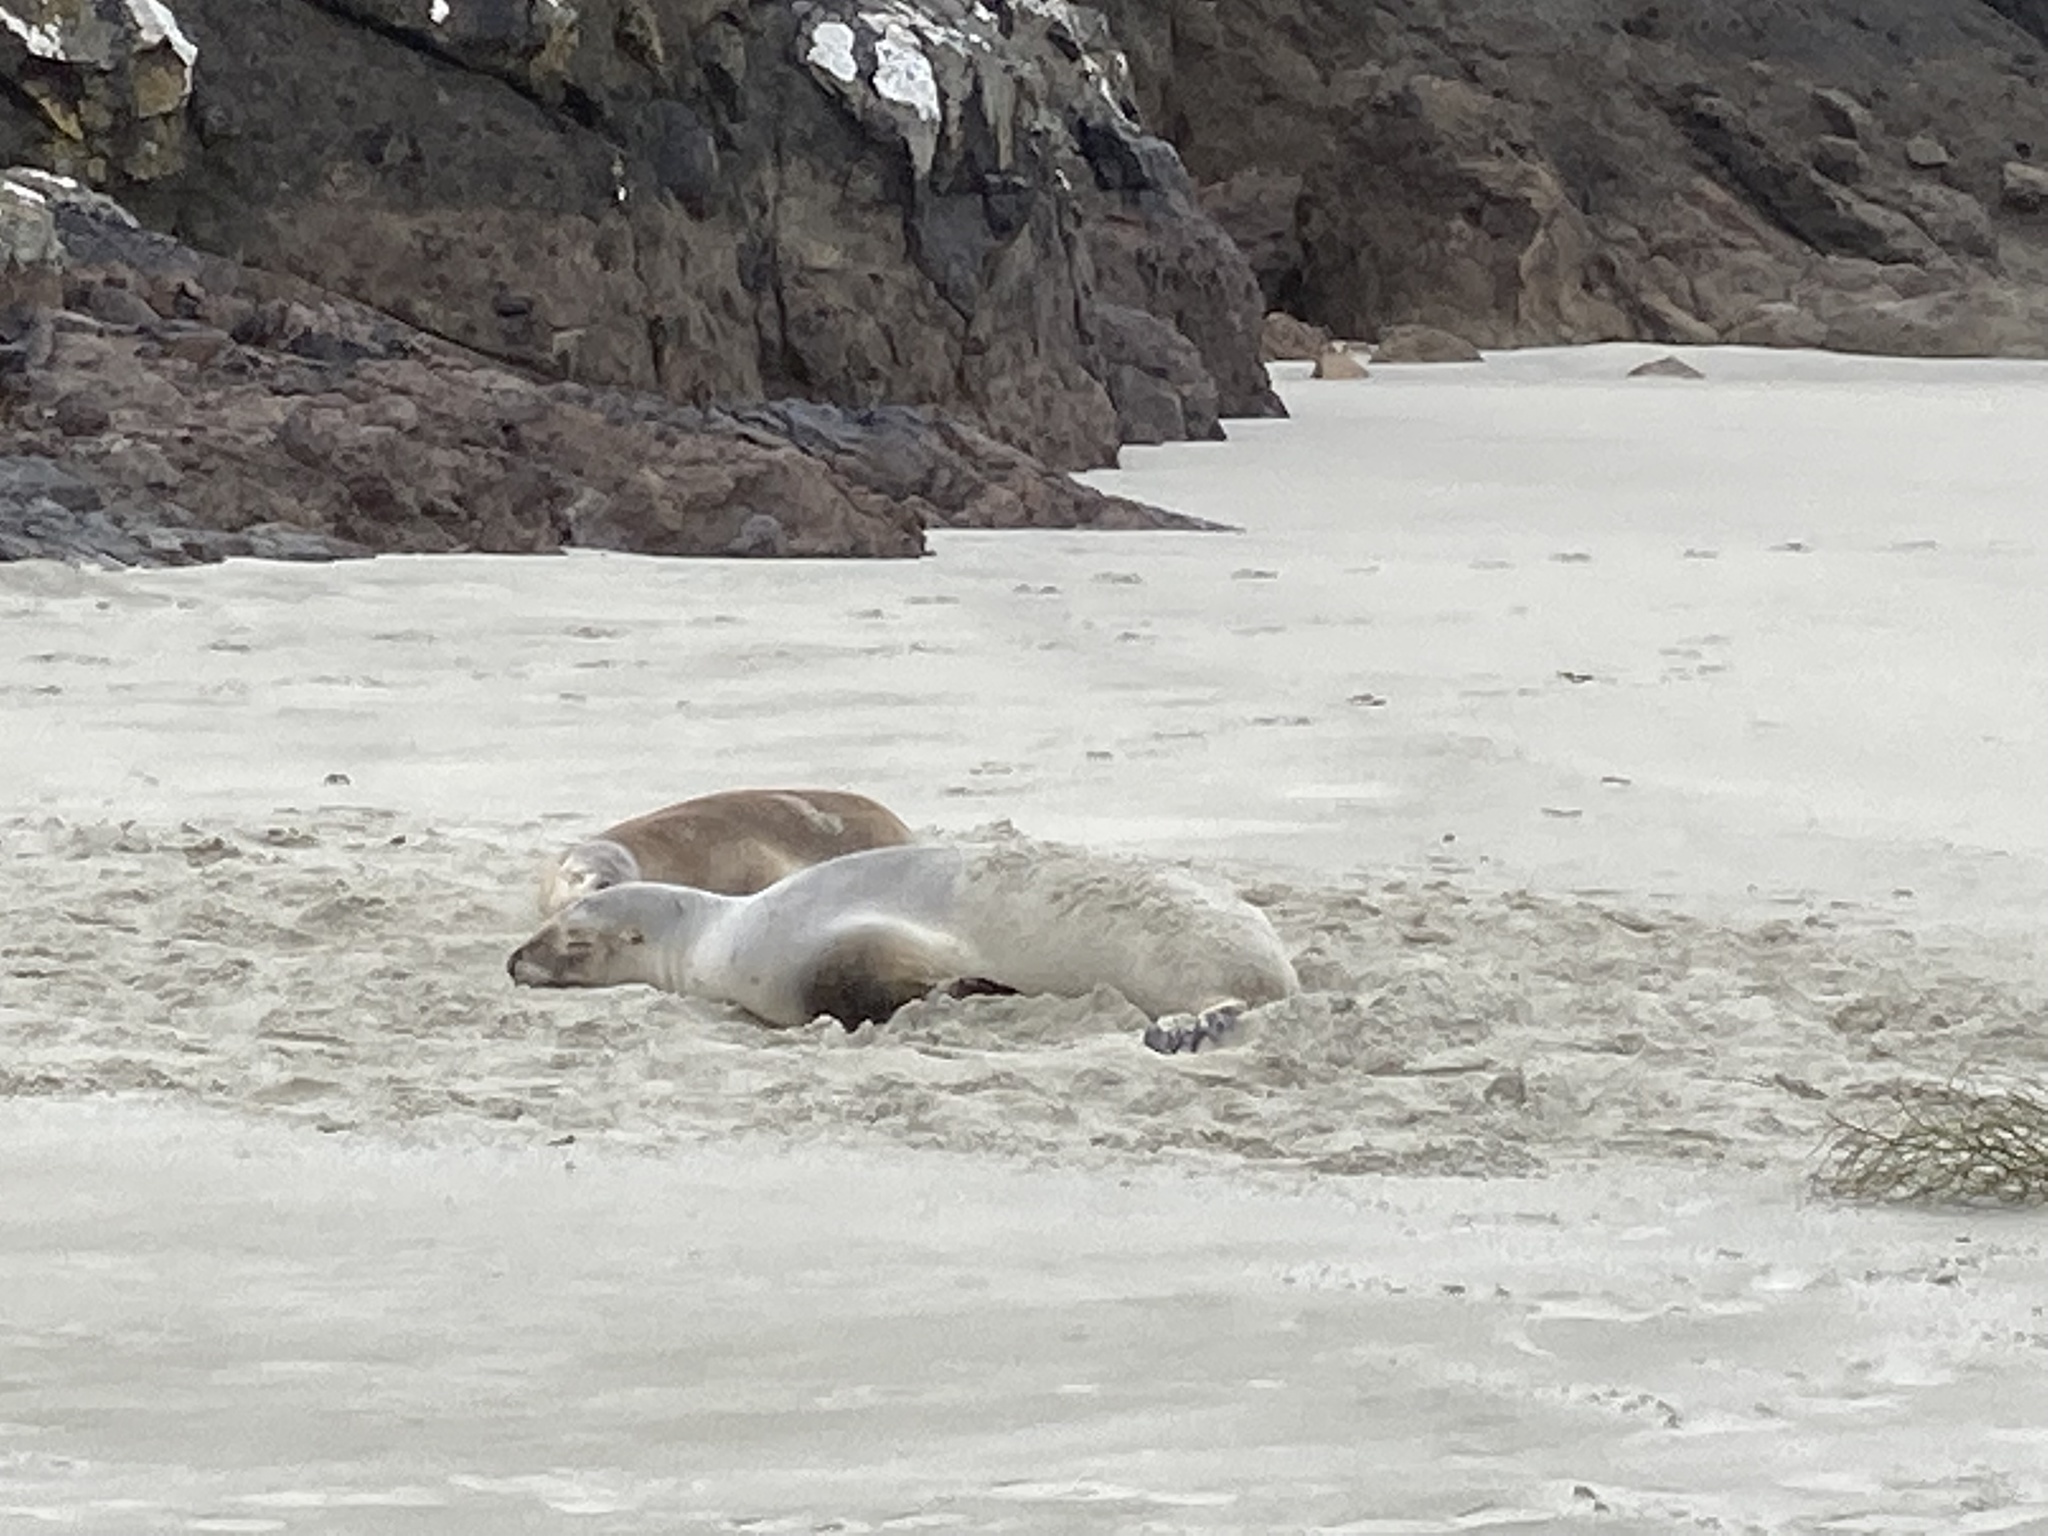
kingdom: Animalia
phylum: Chordata
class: Mammalia
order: Carnivora
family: Otariidae
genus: Phocarctos
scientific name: Phocarctos hookeri
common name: New zealand sea lion
